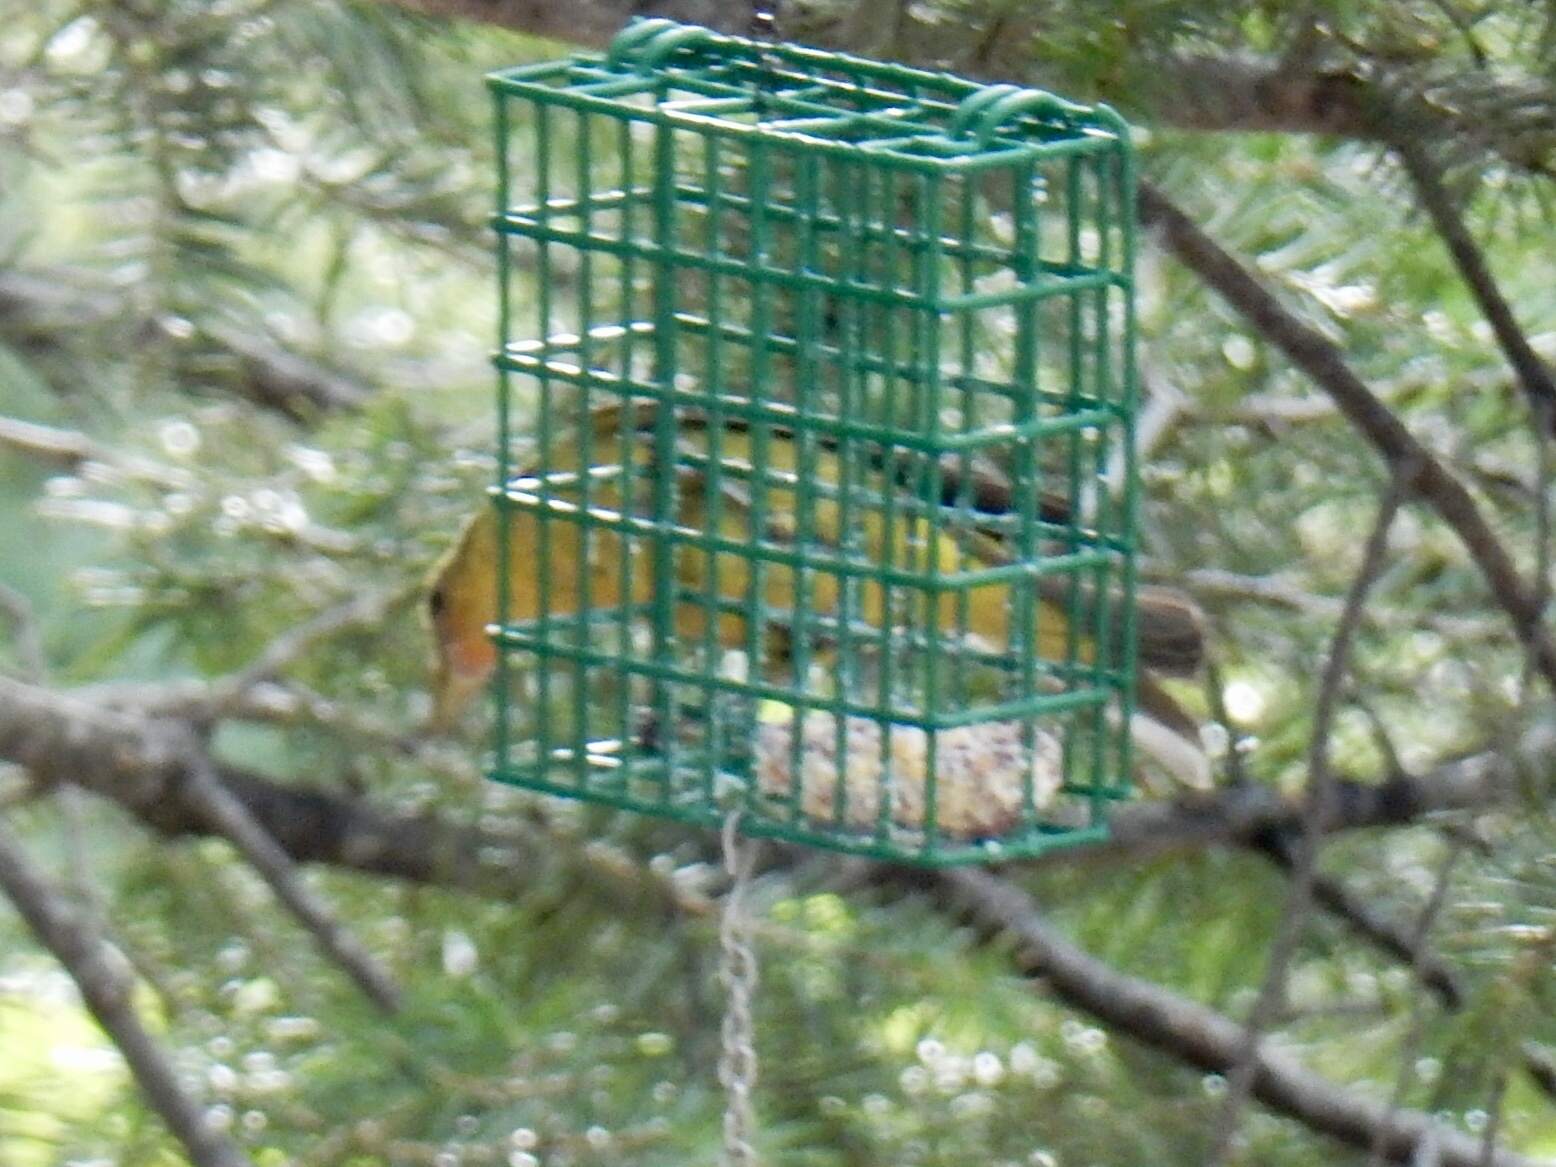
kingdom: Animalia
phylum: Chordata
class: Aves
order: Passeriformes
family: Cardinalidae
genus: Piranga
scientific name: Piranga ludoviciana
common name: Western tanager
